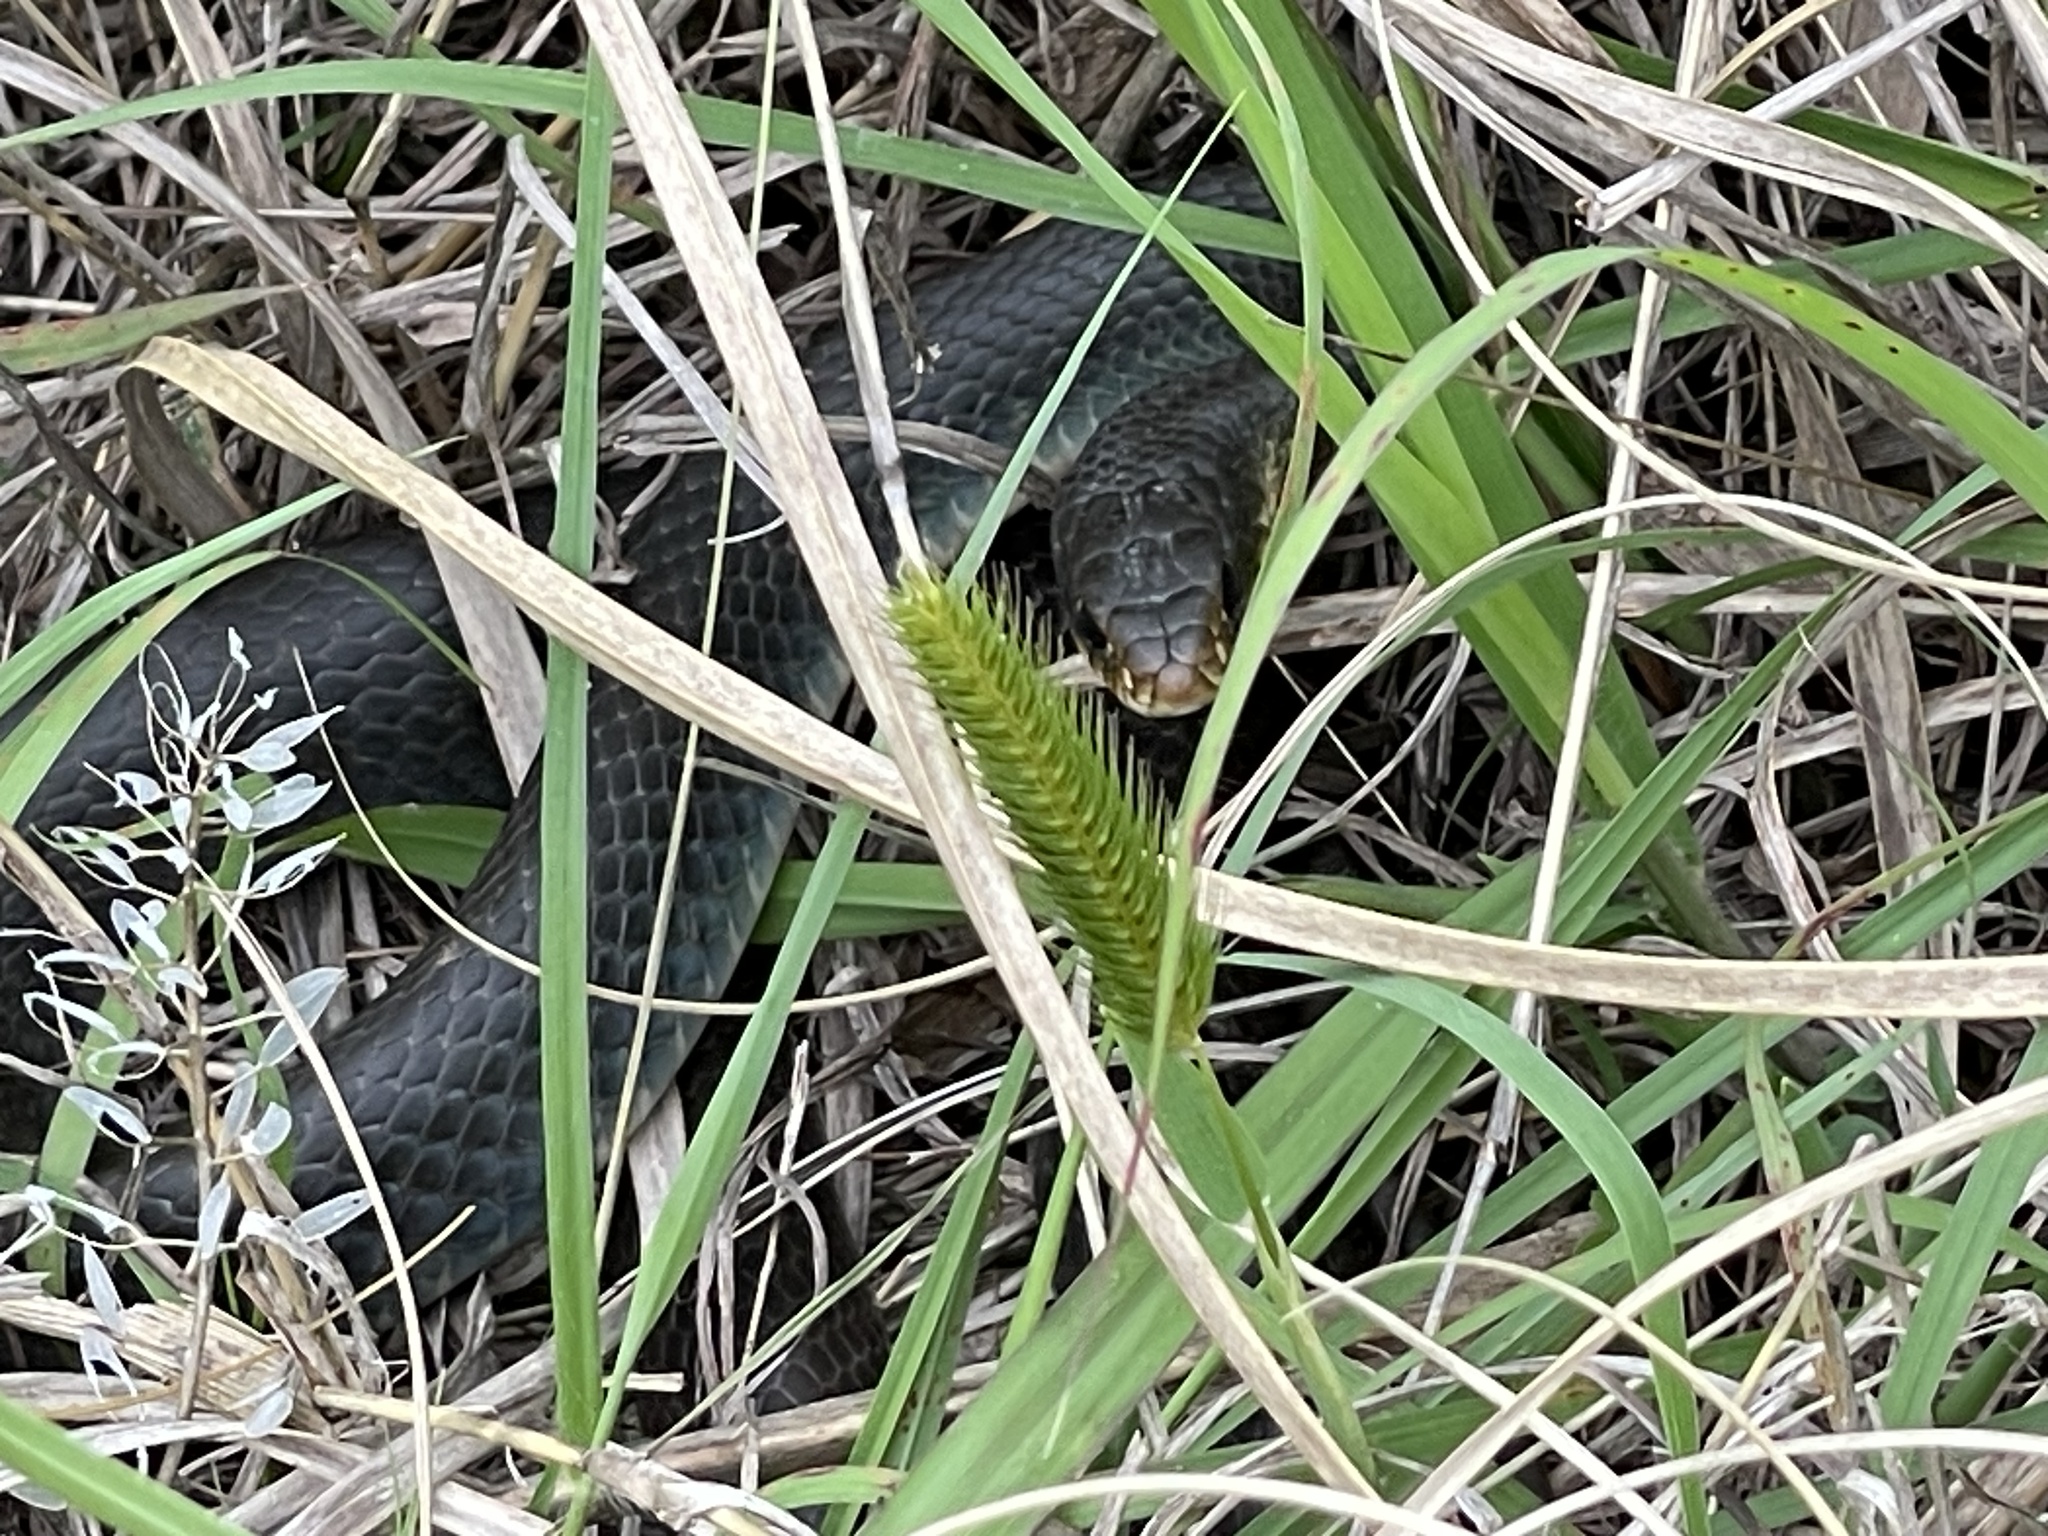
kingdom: Animalia
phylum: Chordata
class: Squamata
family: Colubridae
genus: Coluber
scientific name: Coluber constrictor
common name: Eastern racer
